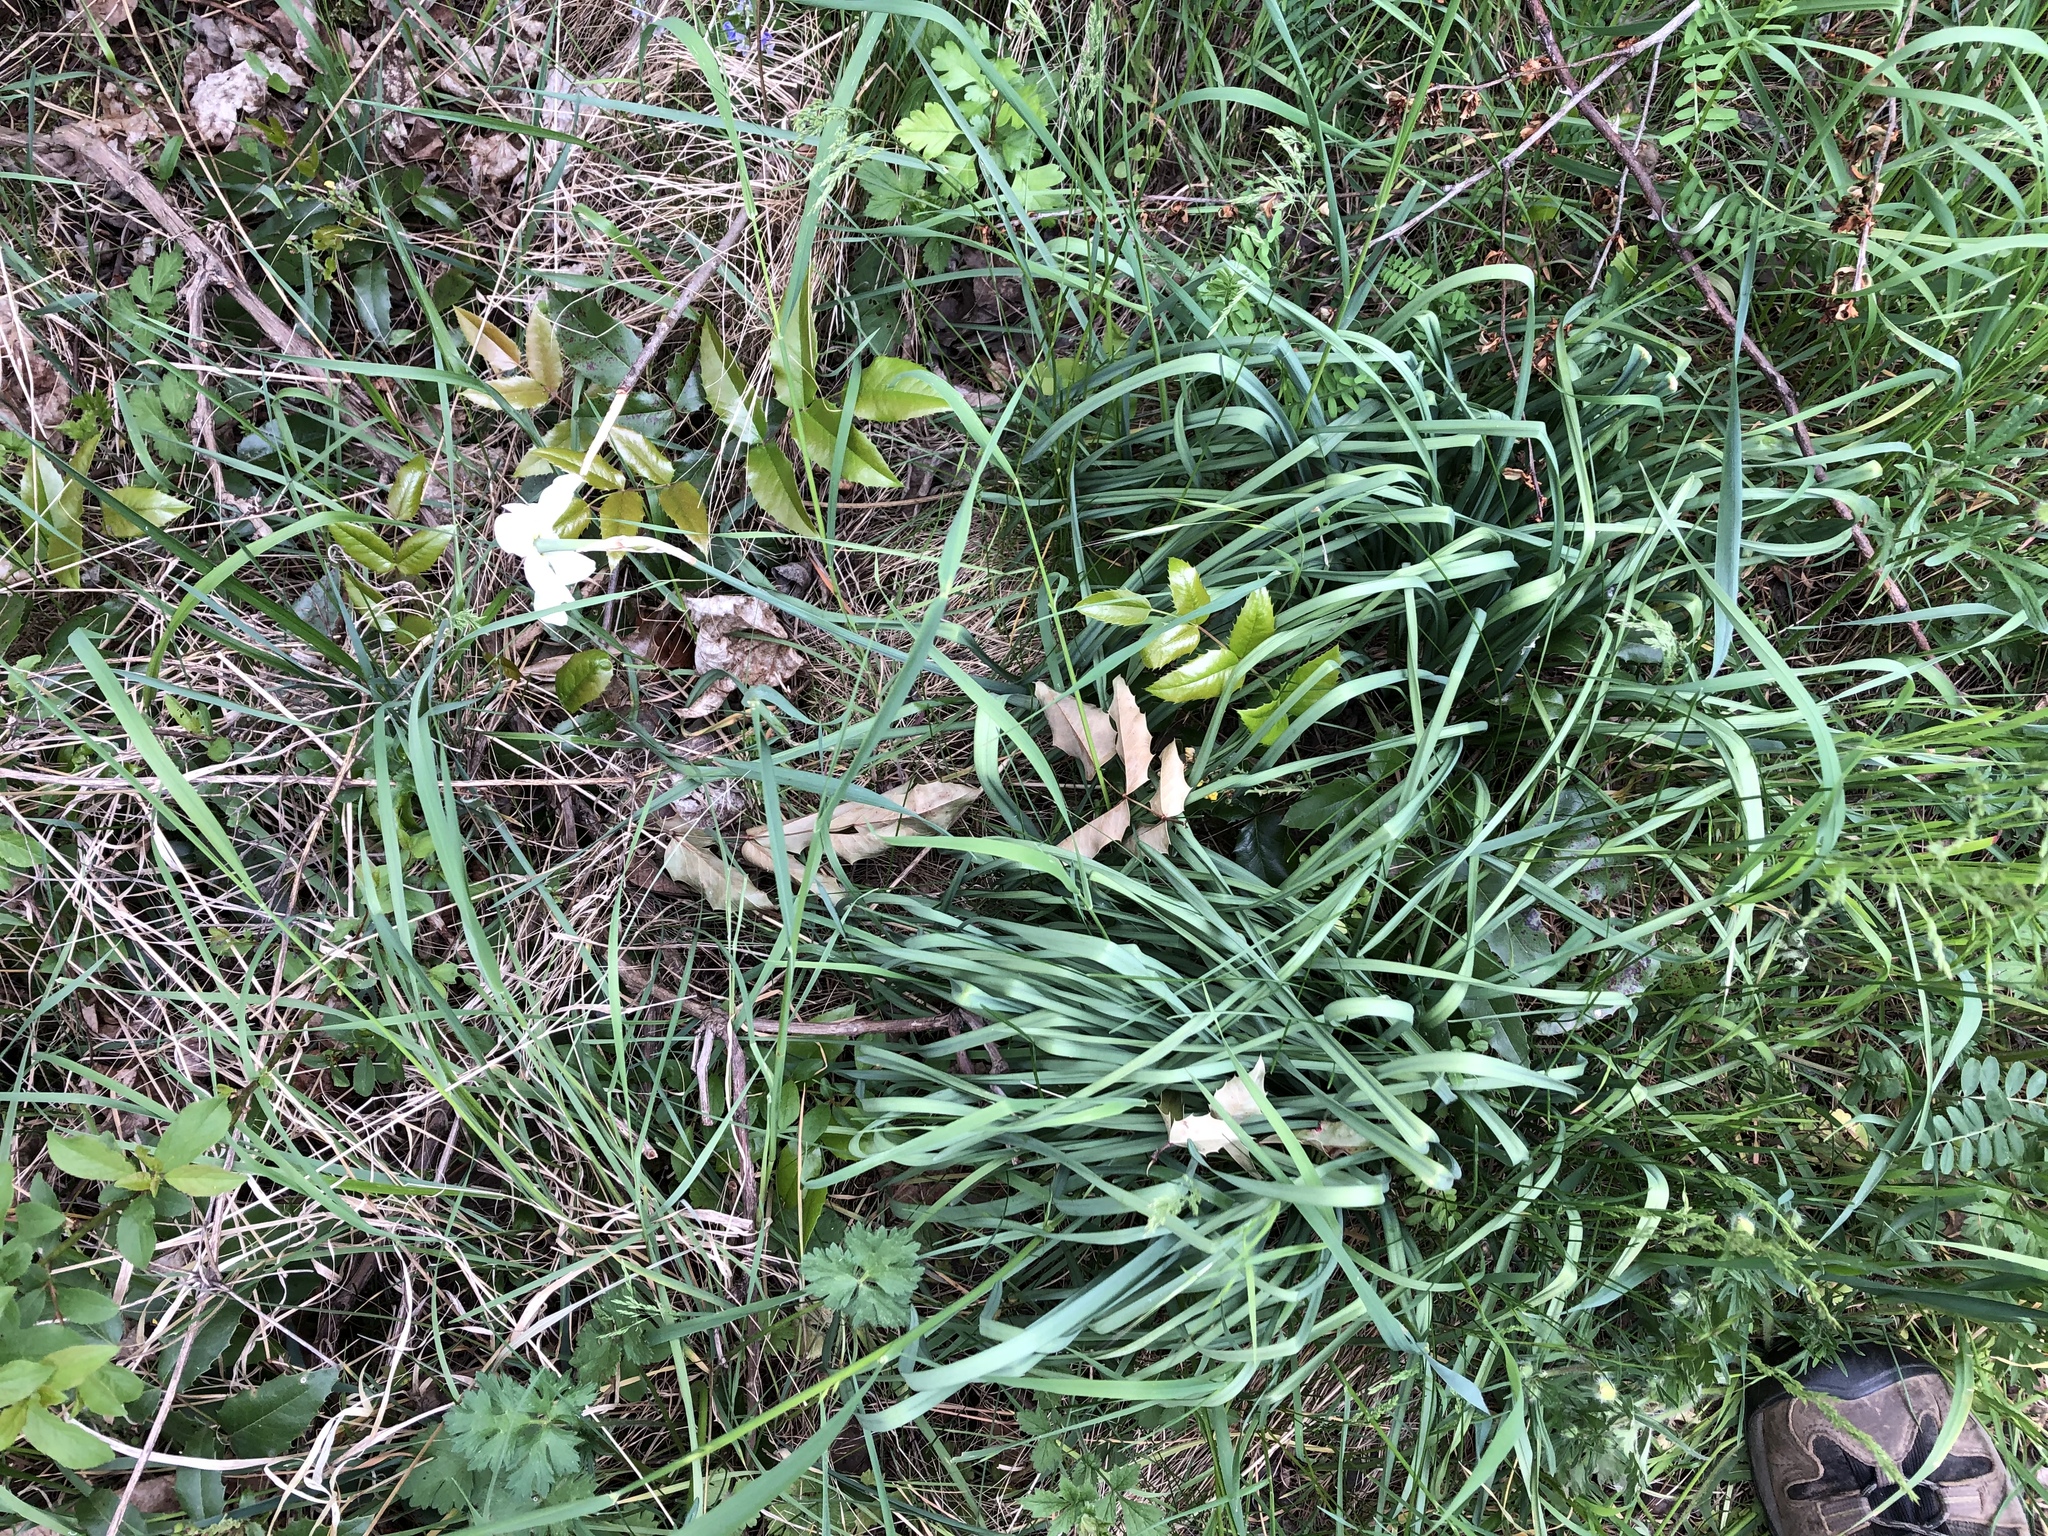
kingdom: Plantae
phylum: Tracheophyta
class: Liliopsida
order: Asparagales
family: Amaryllidaceae
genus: Narcissus
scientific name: Narcissus poeticus
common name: Pheasant's-eye daffodil
